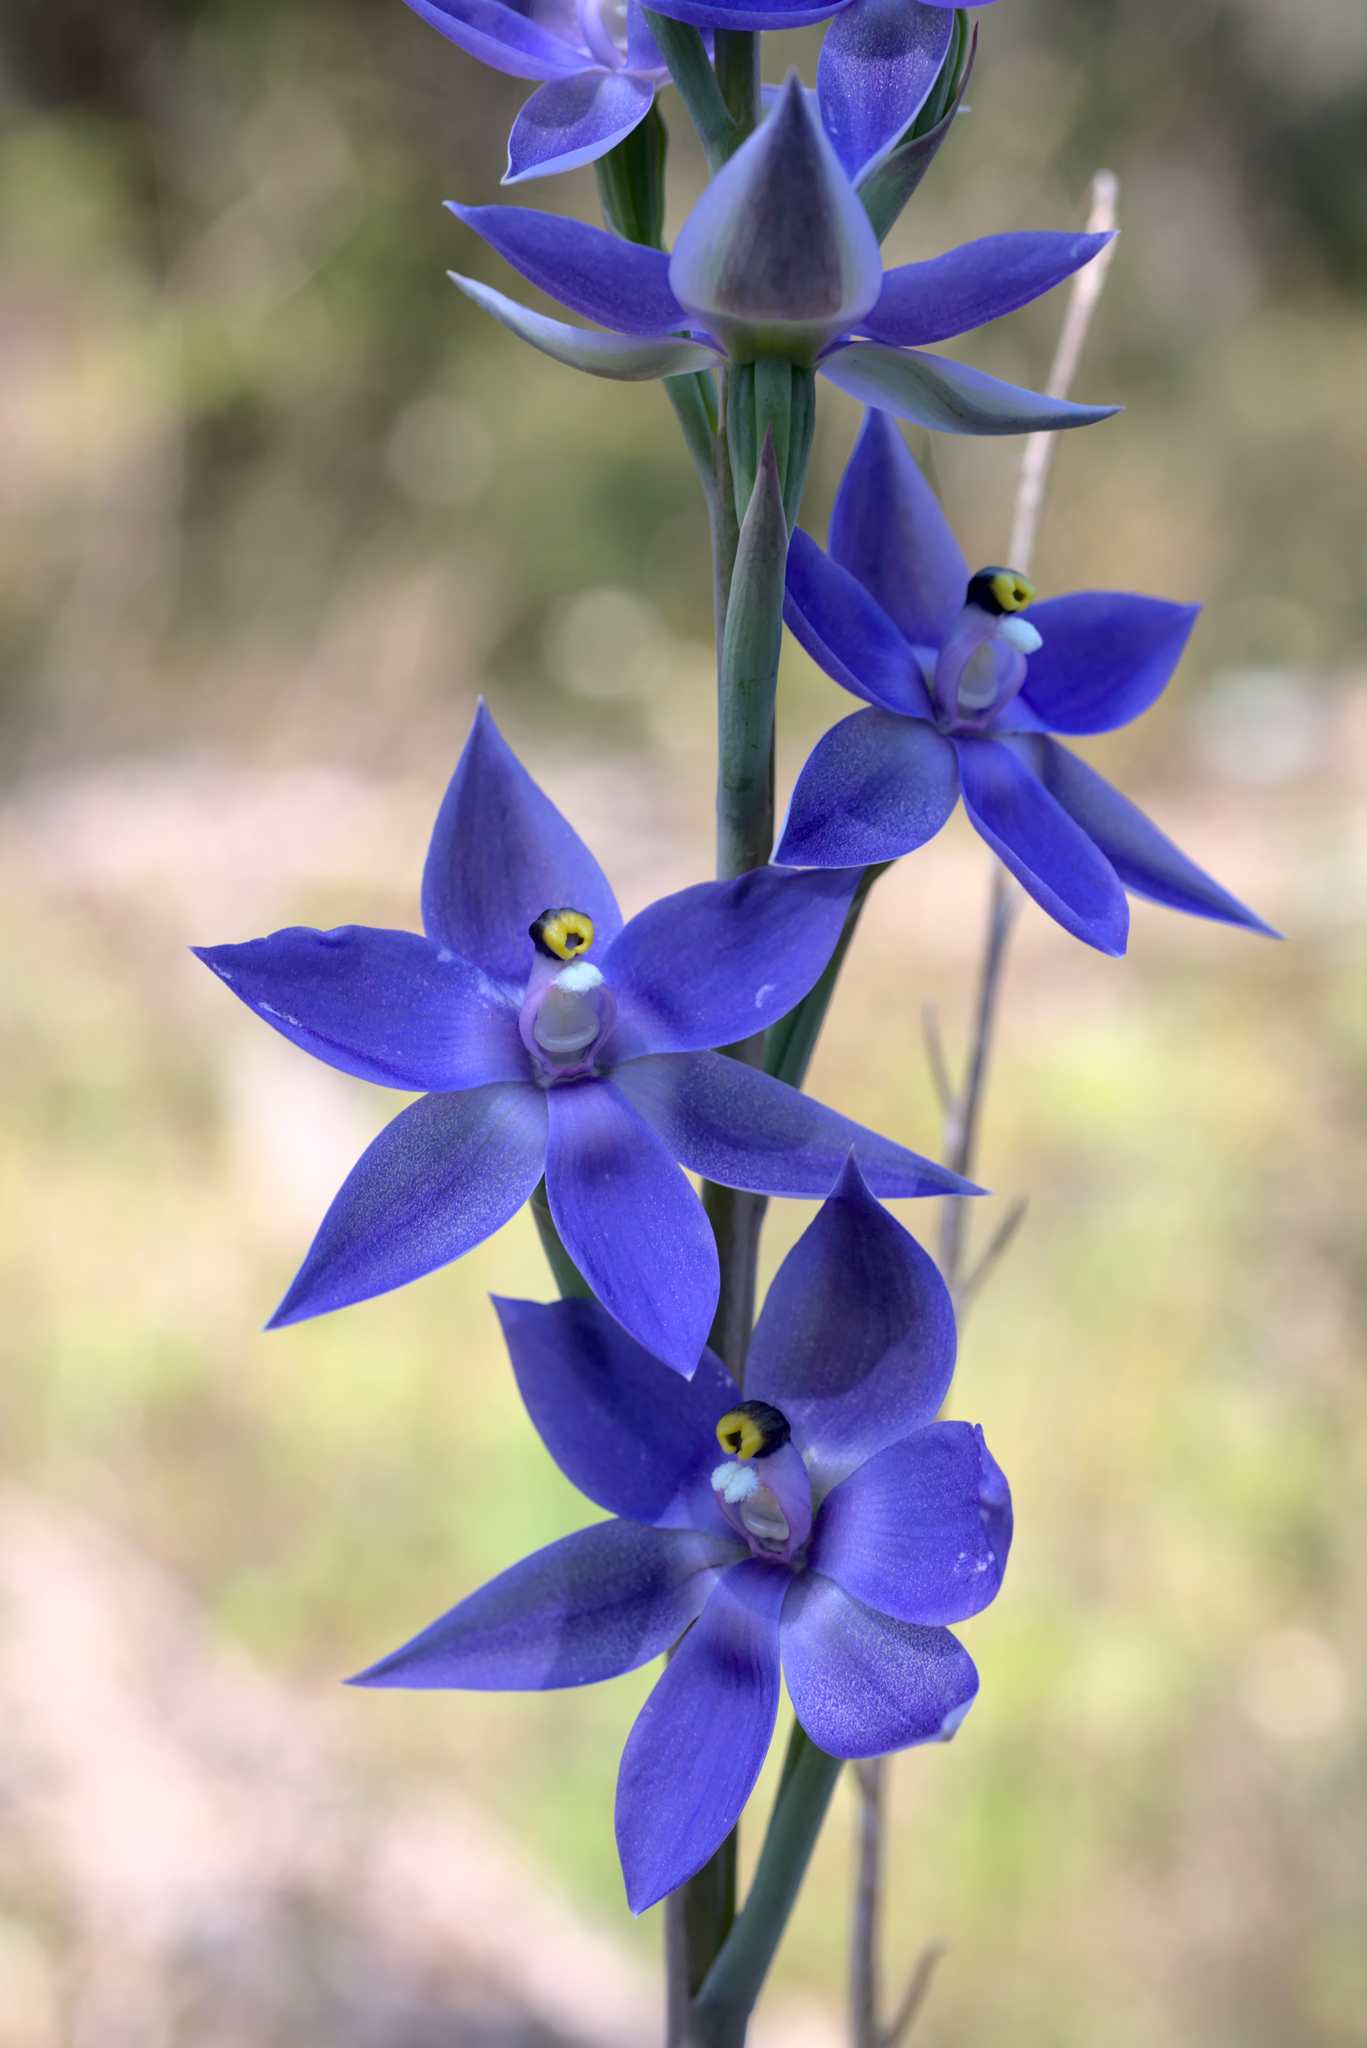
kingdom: Plantae
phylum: Tracheophyta
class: Liliopsida
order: Asparagales
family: Orchidaceae
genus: Thelymitra
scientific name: Thelymitra macrophylla
